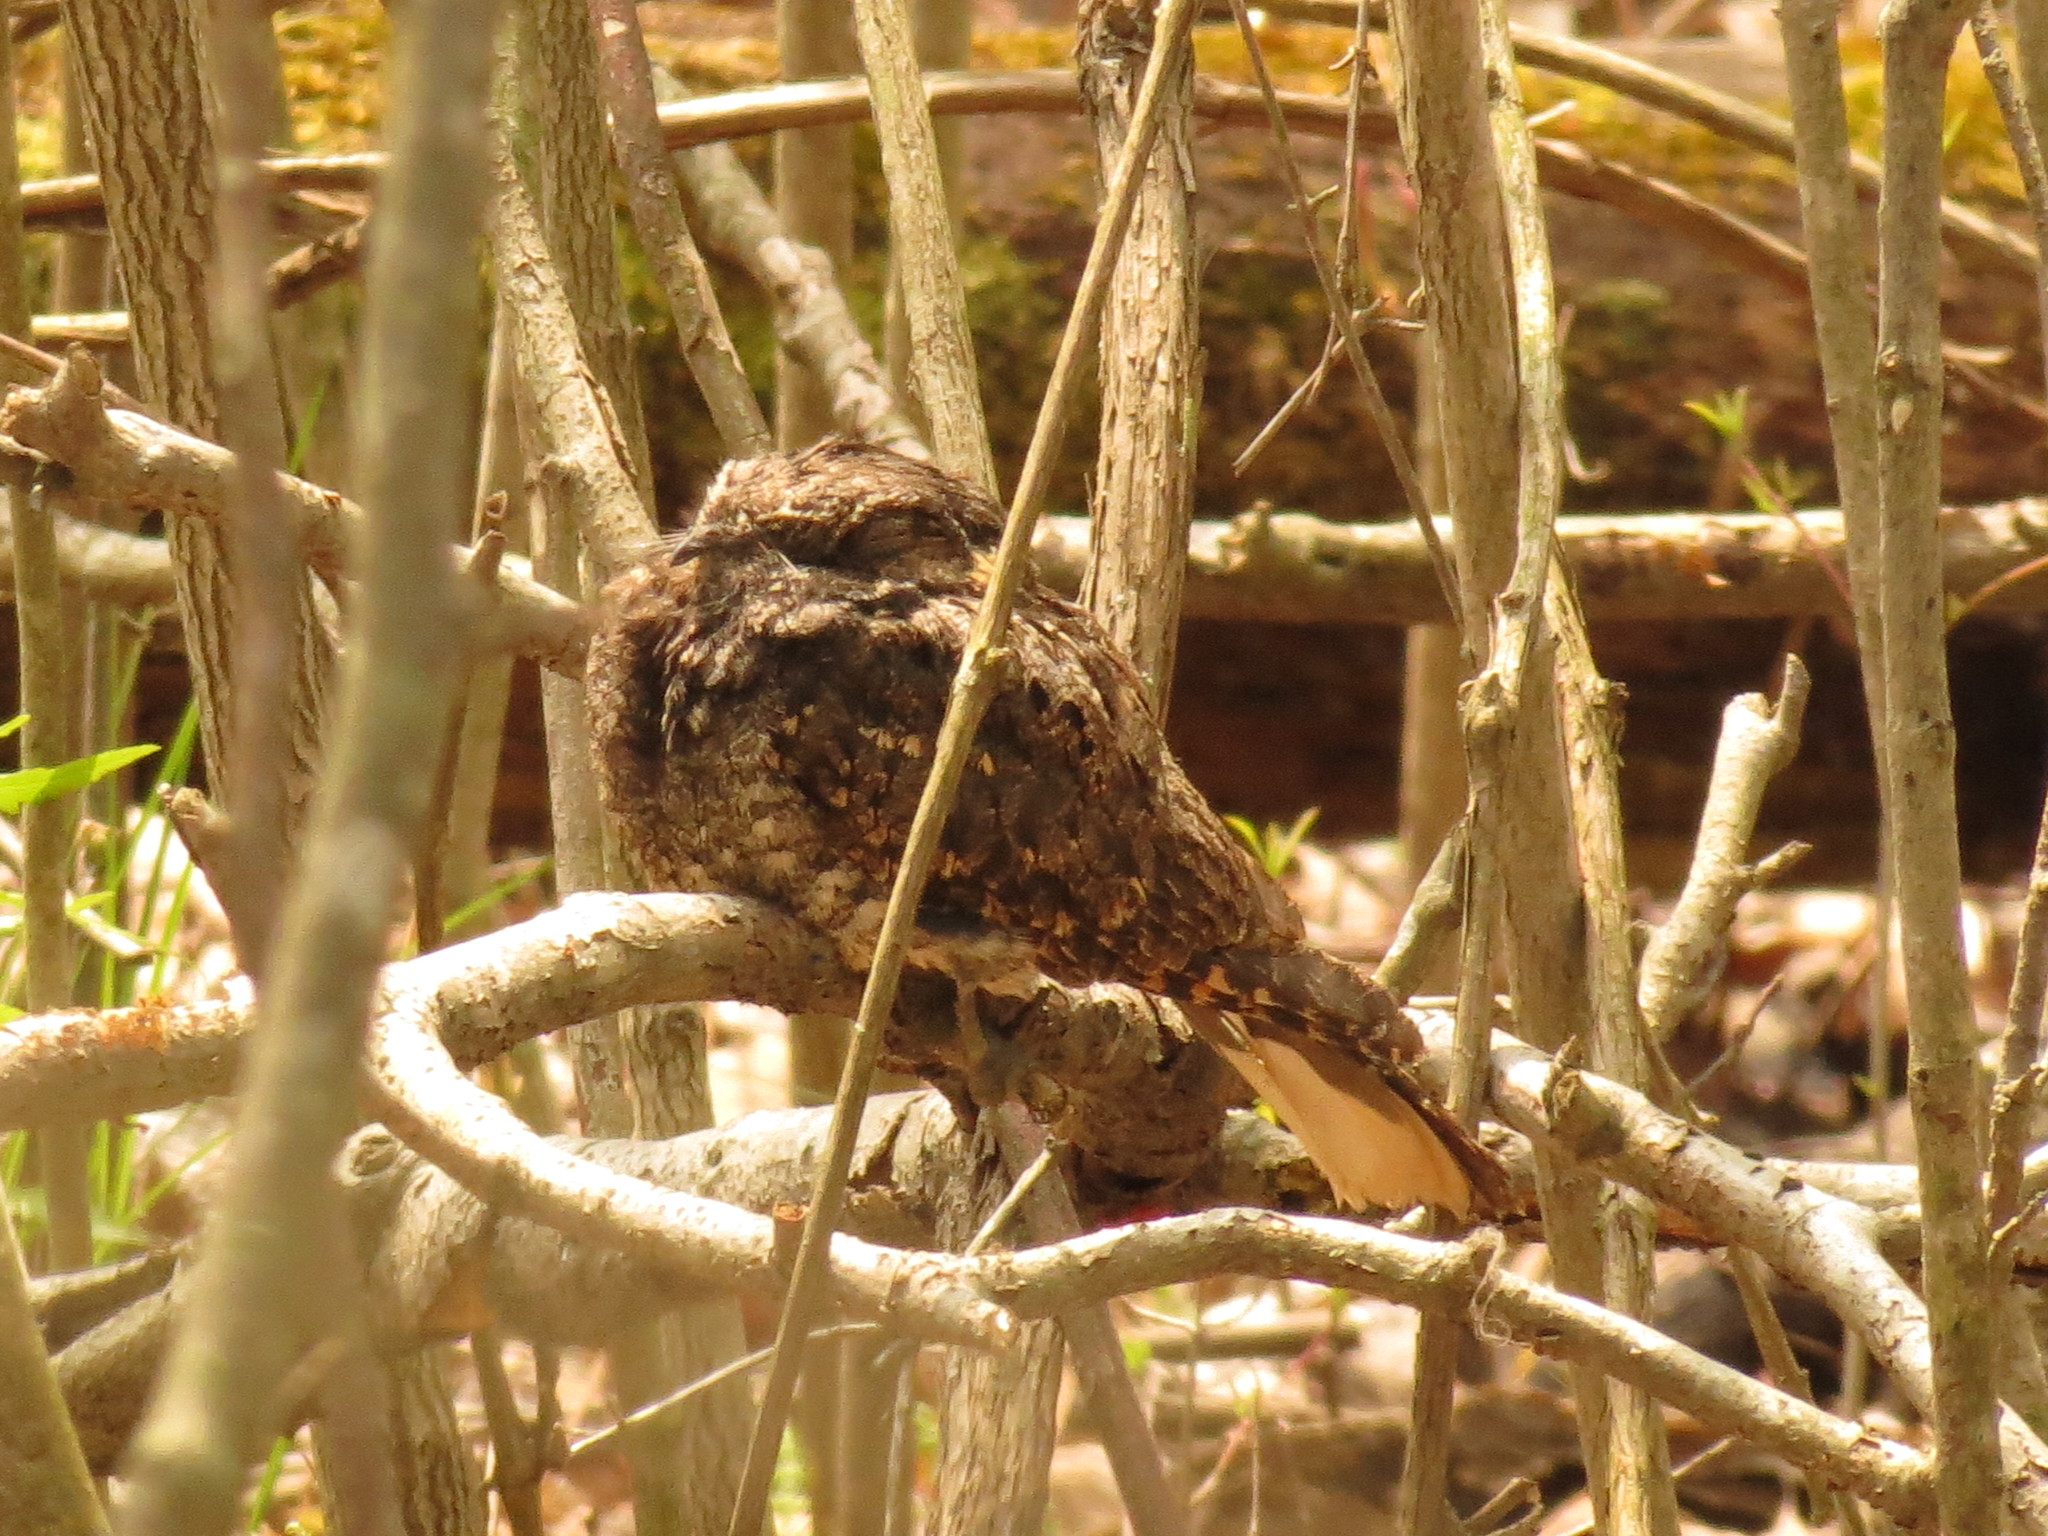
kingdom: Animalia
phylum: Chordata
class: Aves
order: Caprimulgiformes
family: Caprimulgidae
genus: Antrostomus
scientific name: Antrostomus vociferus
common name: Eastern whip-poor-will
